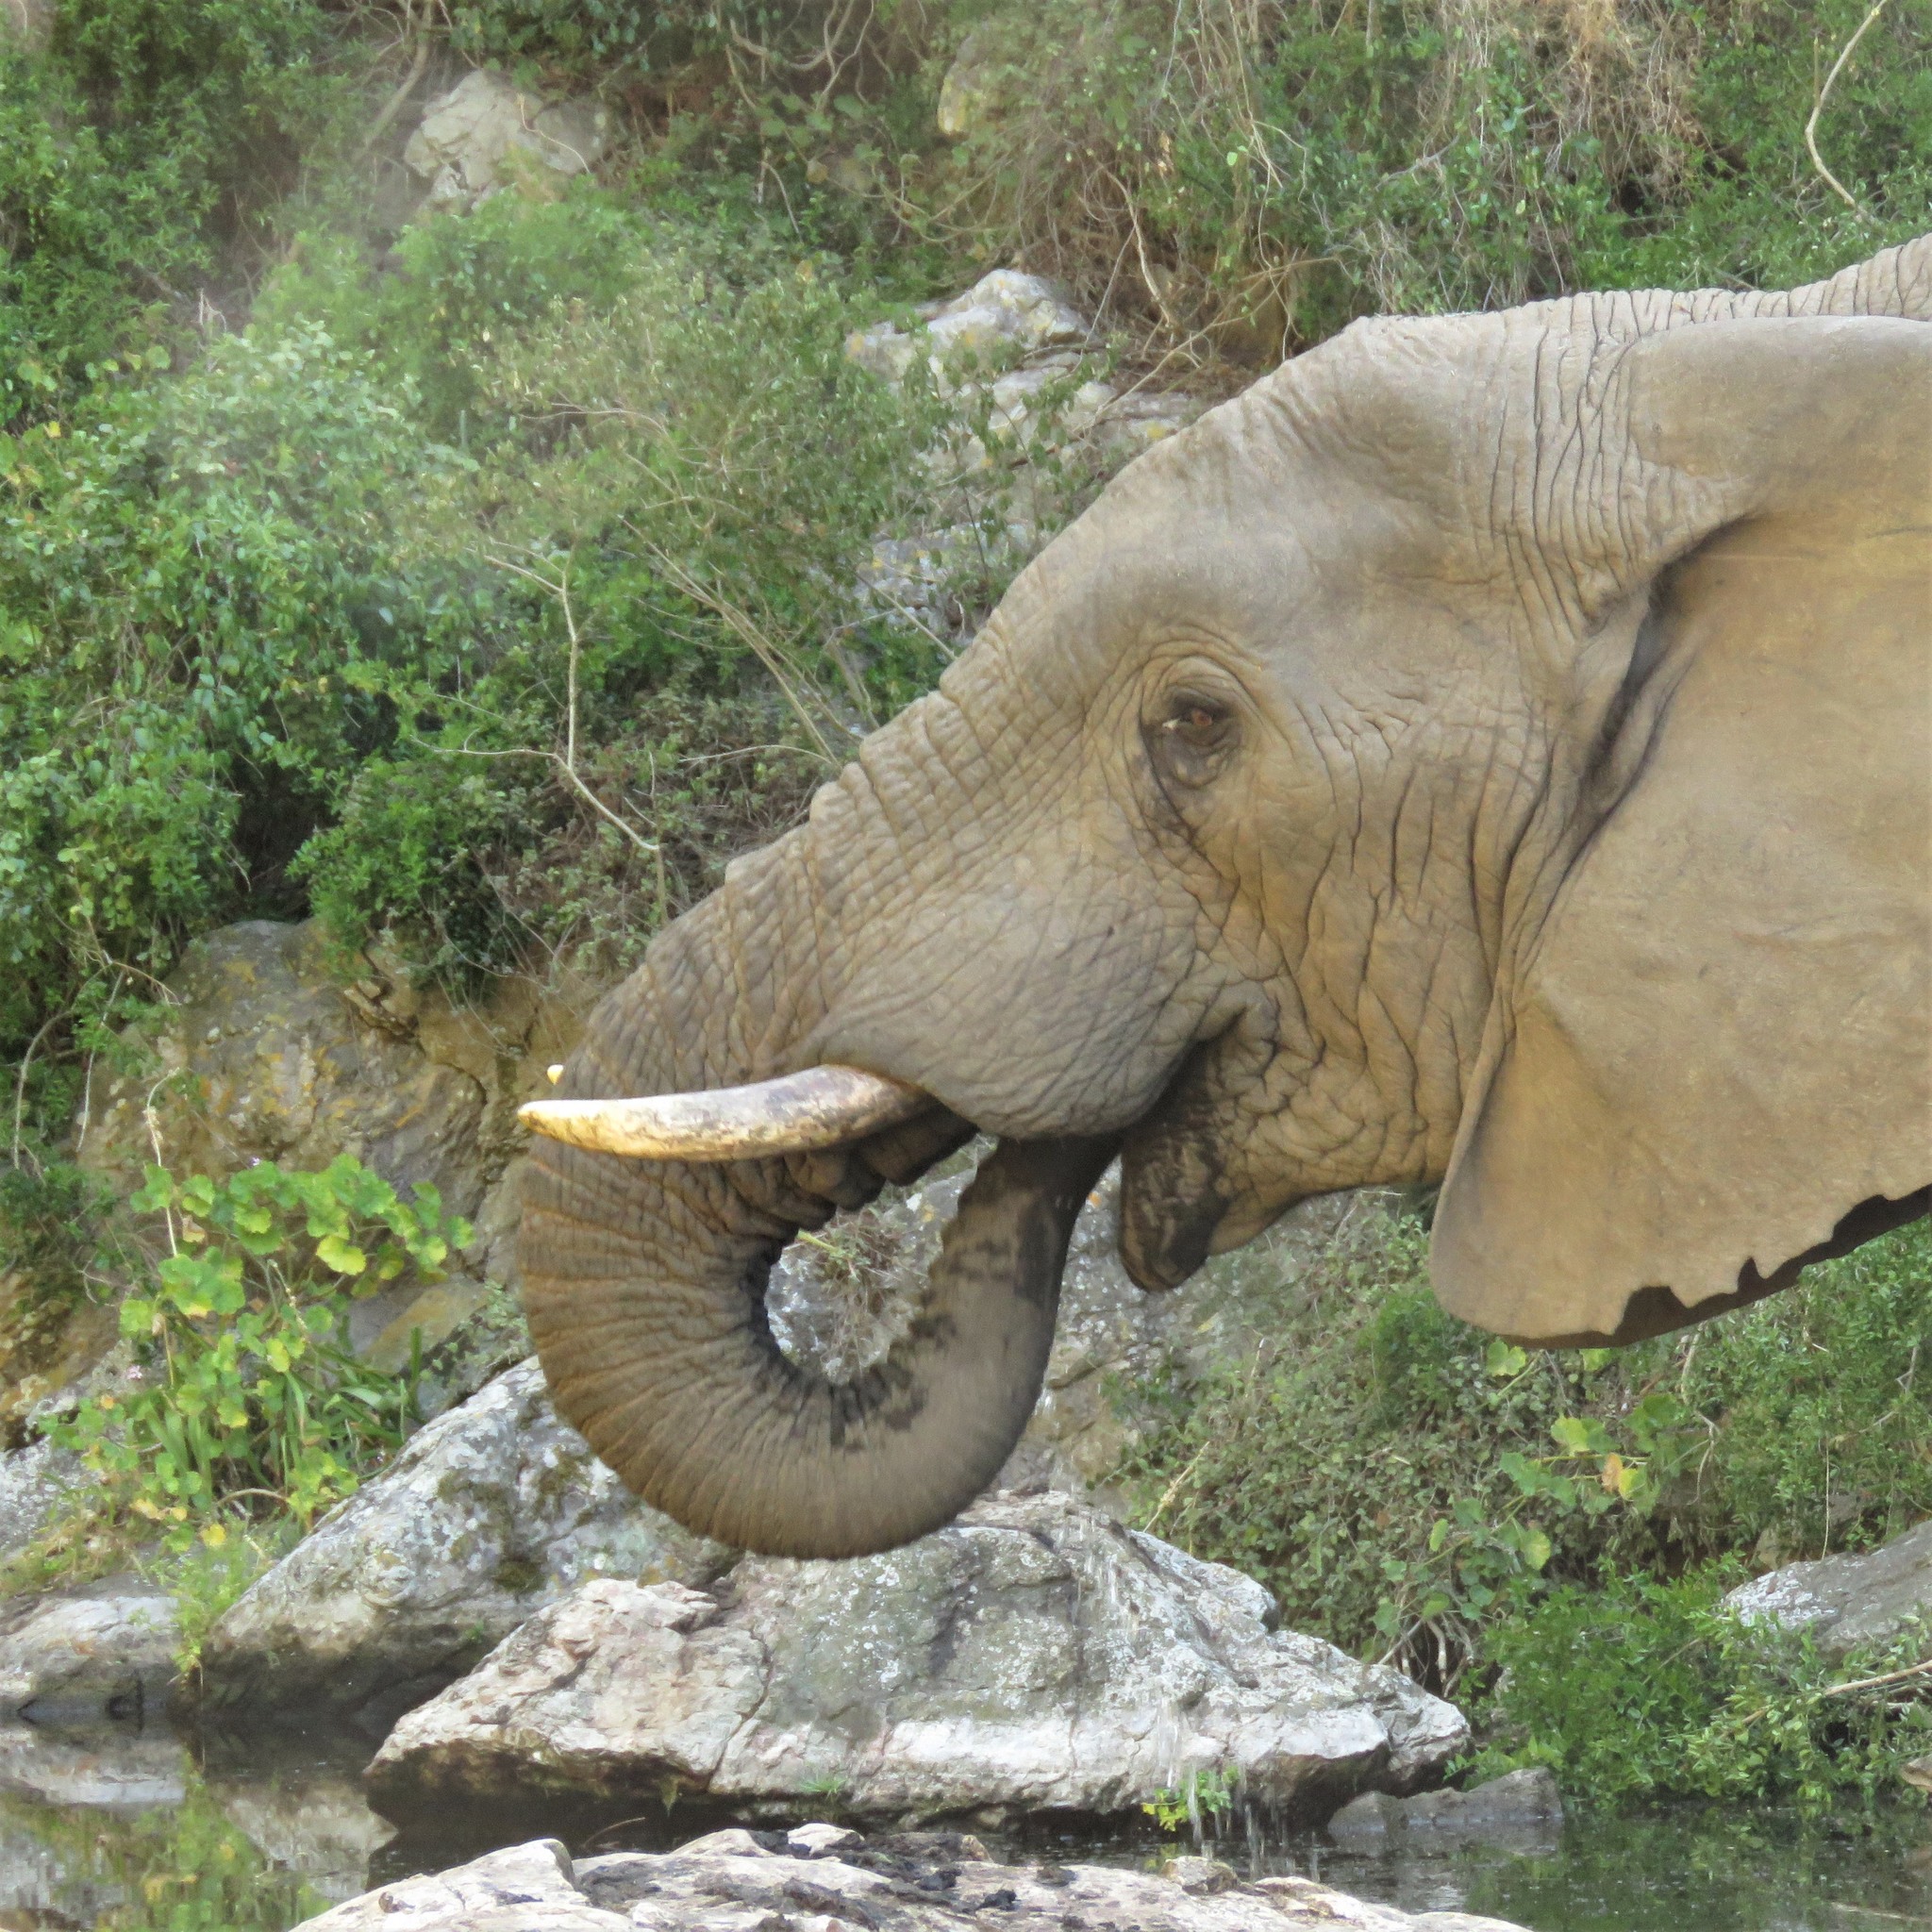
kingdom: Animalia
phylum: Chordata
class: Mammalia
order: Proboscidea
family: Elephantidae
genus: Loxodonta
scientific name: Loxodonta africana
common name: African elephant
